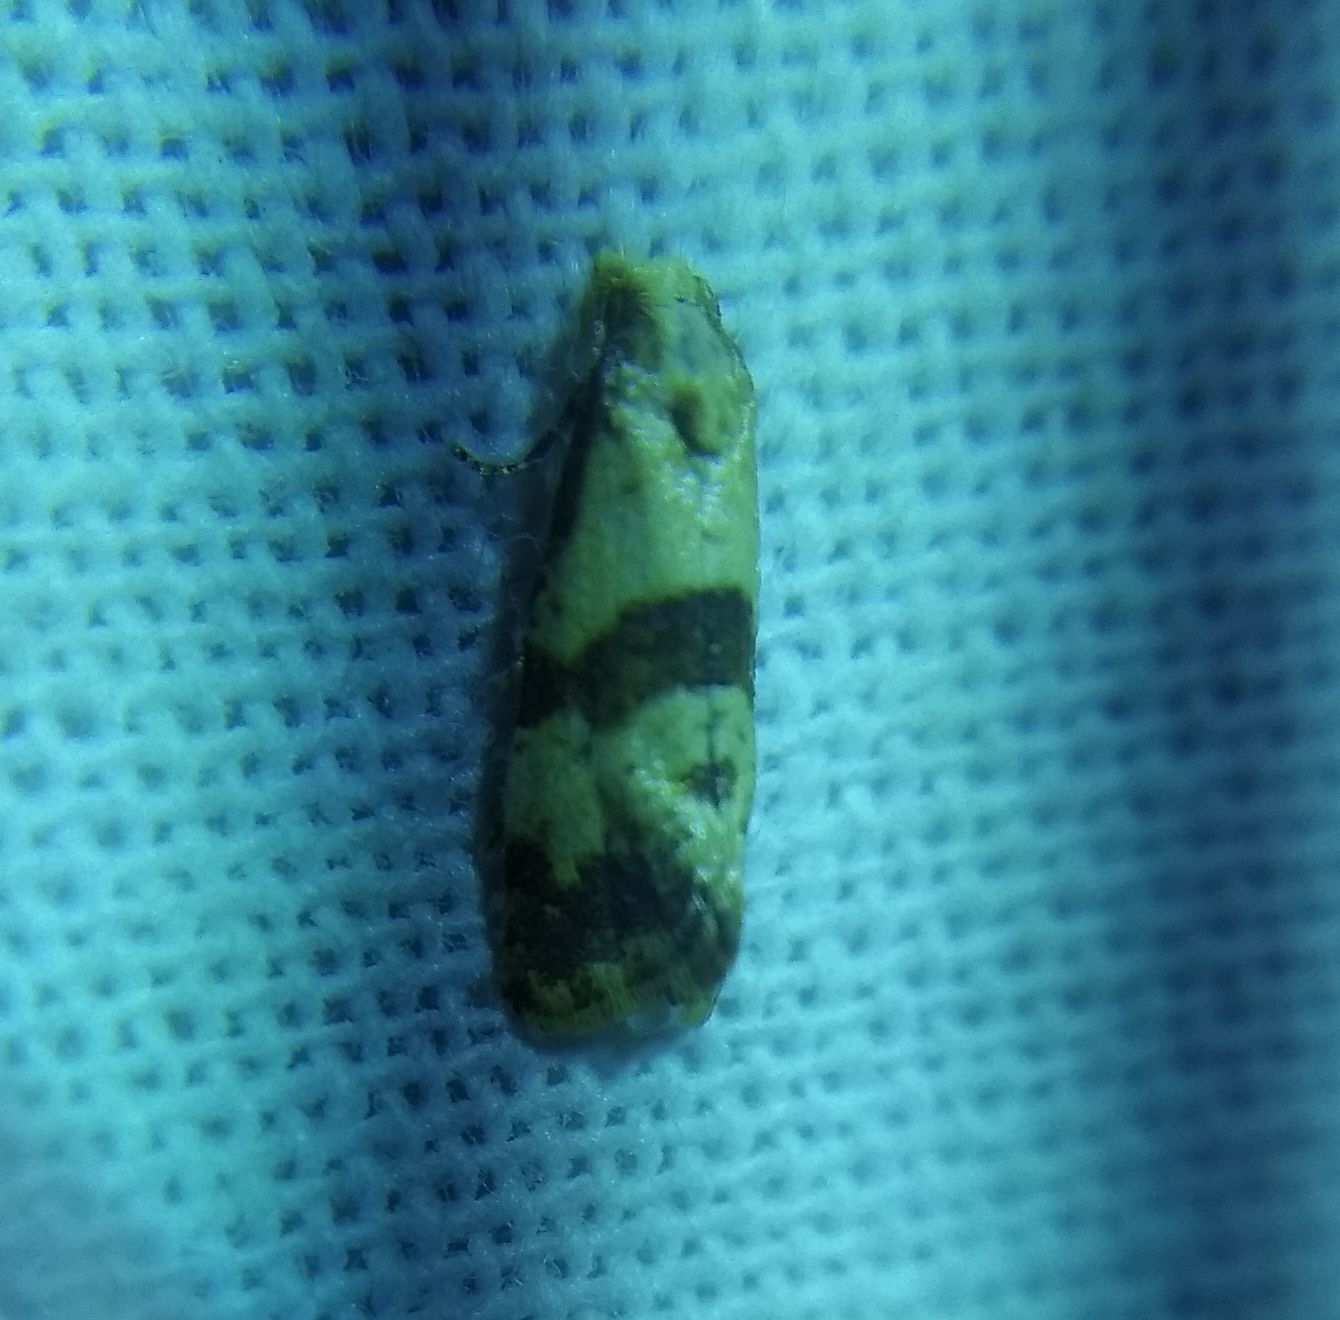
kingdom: Animalia
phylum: Arthropoda
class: Insecta
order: Lepidoptera
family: Tortricidae
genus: Phalonidia
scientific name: Phalonidia contractana
